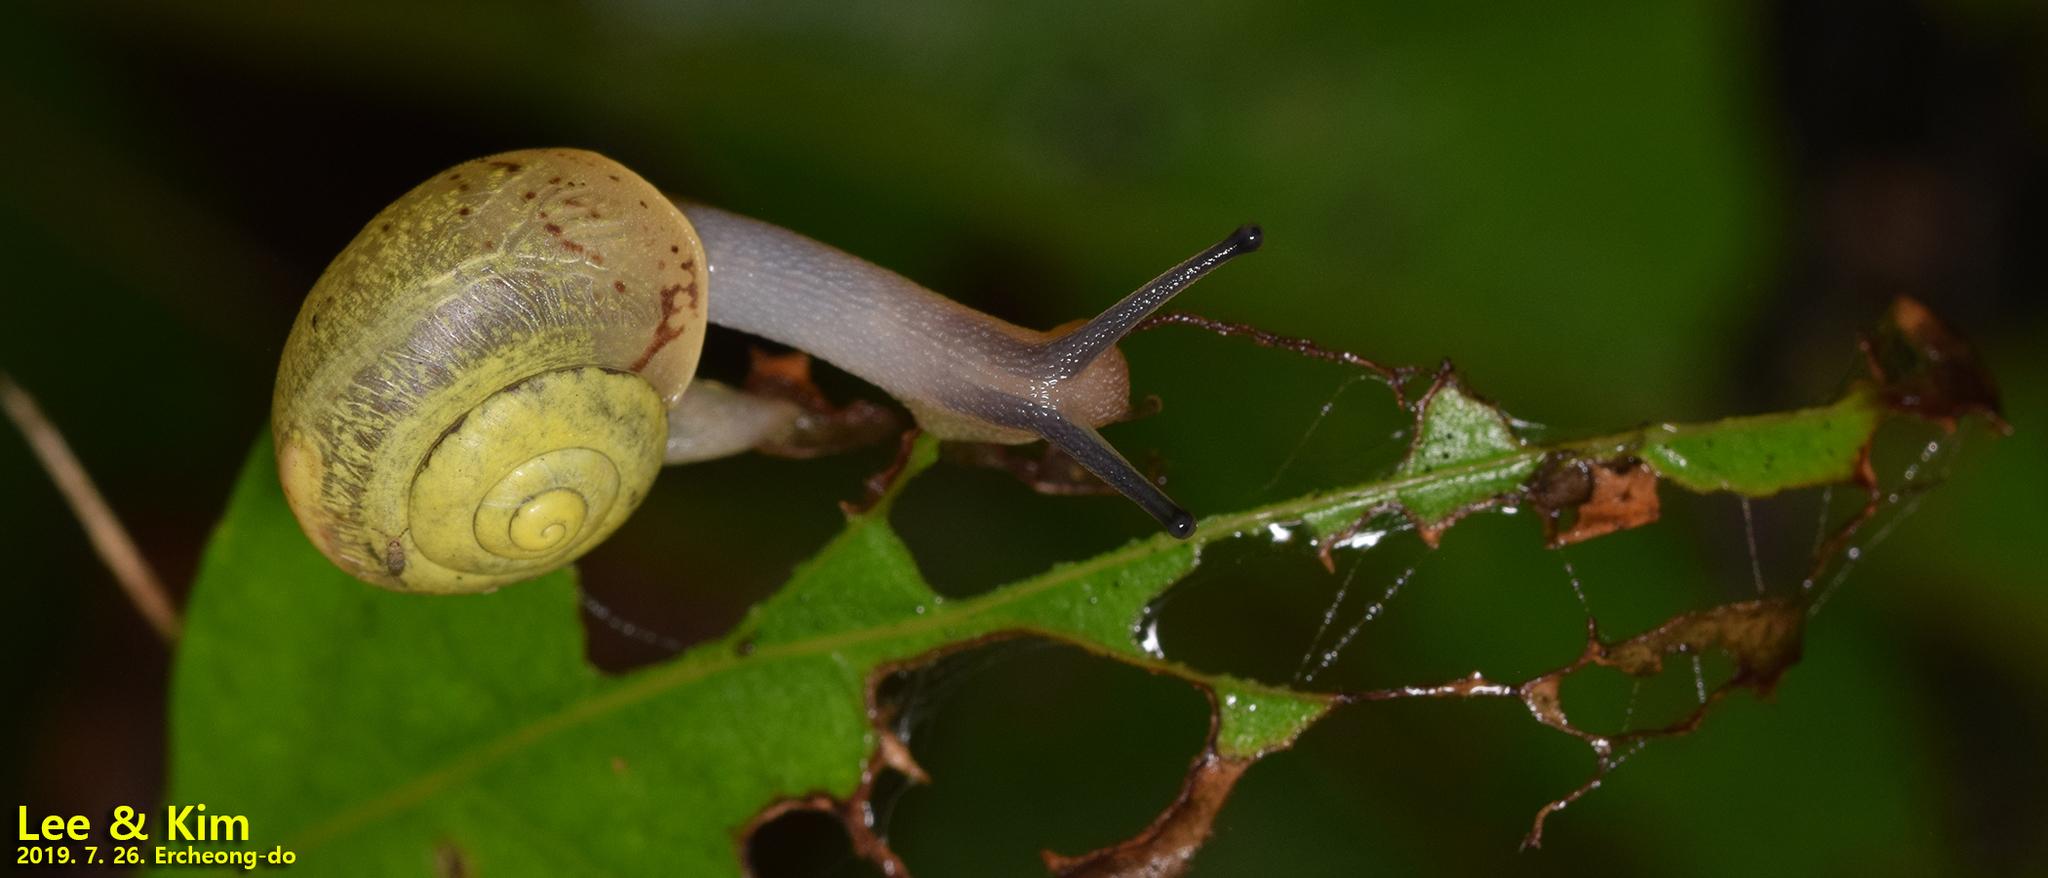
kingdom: Animalia
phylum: Mollusca
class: Gastropoda
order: Stylommatophora
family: Camaenidae
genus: Chosenelix
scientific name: Chosenelix problematica
